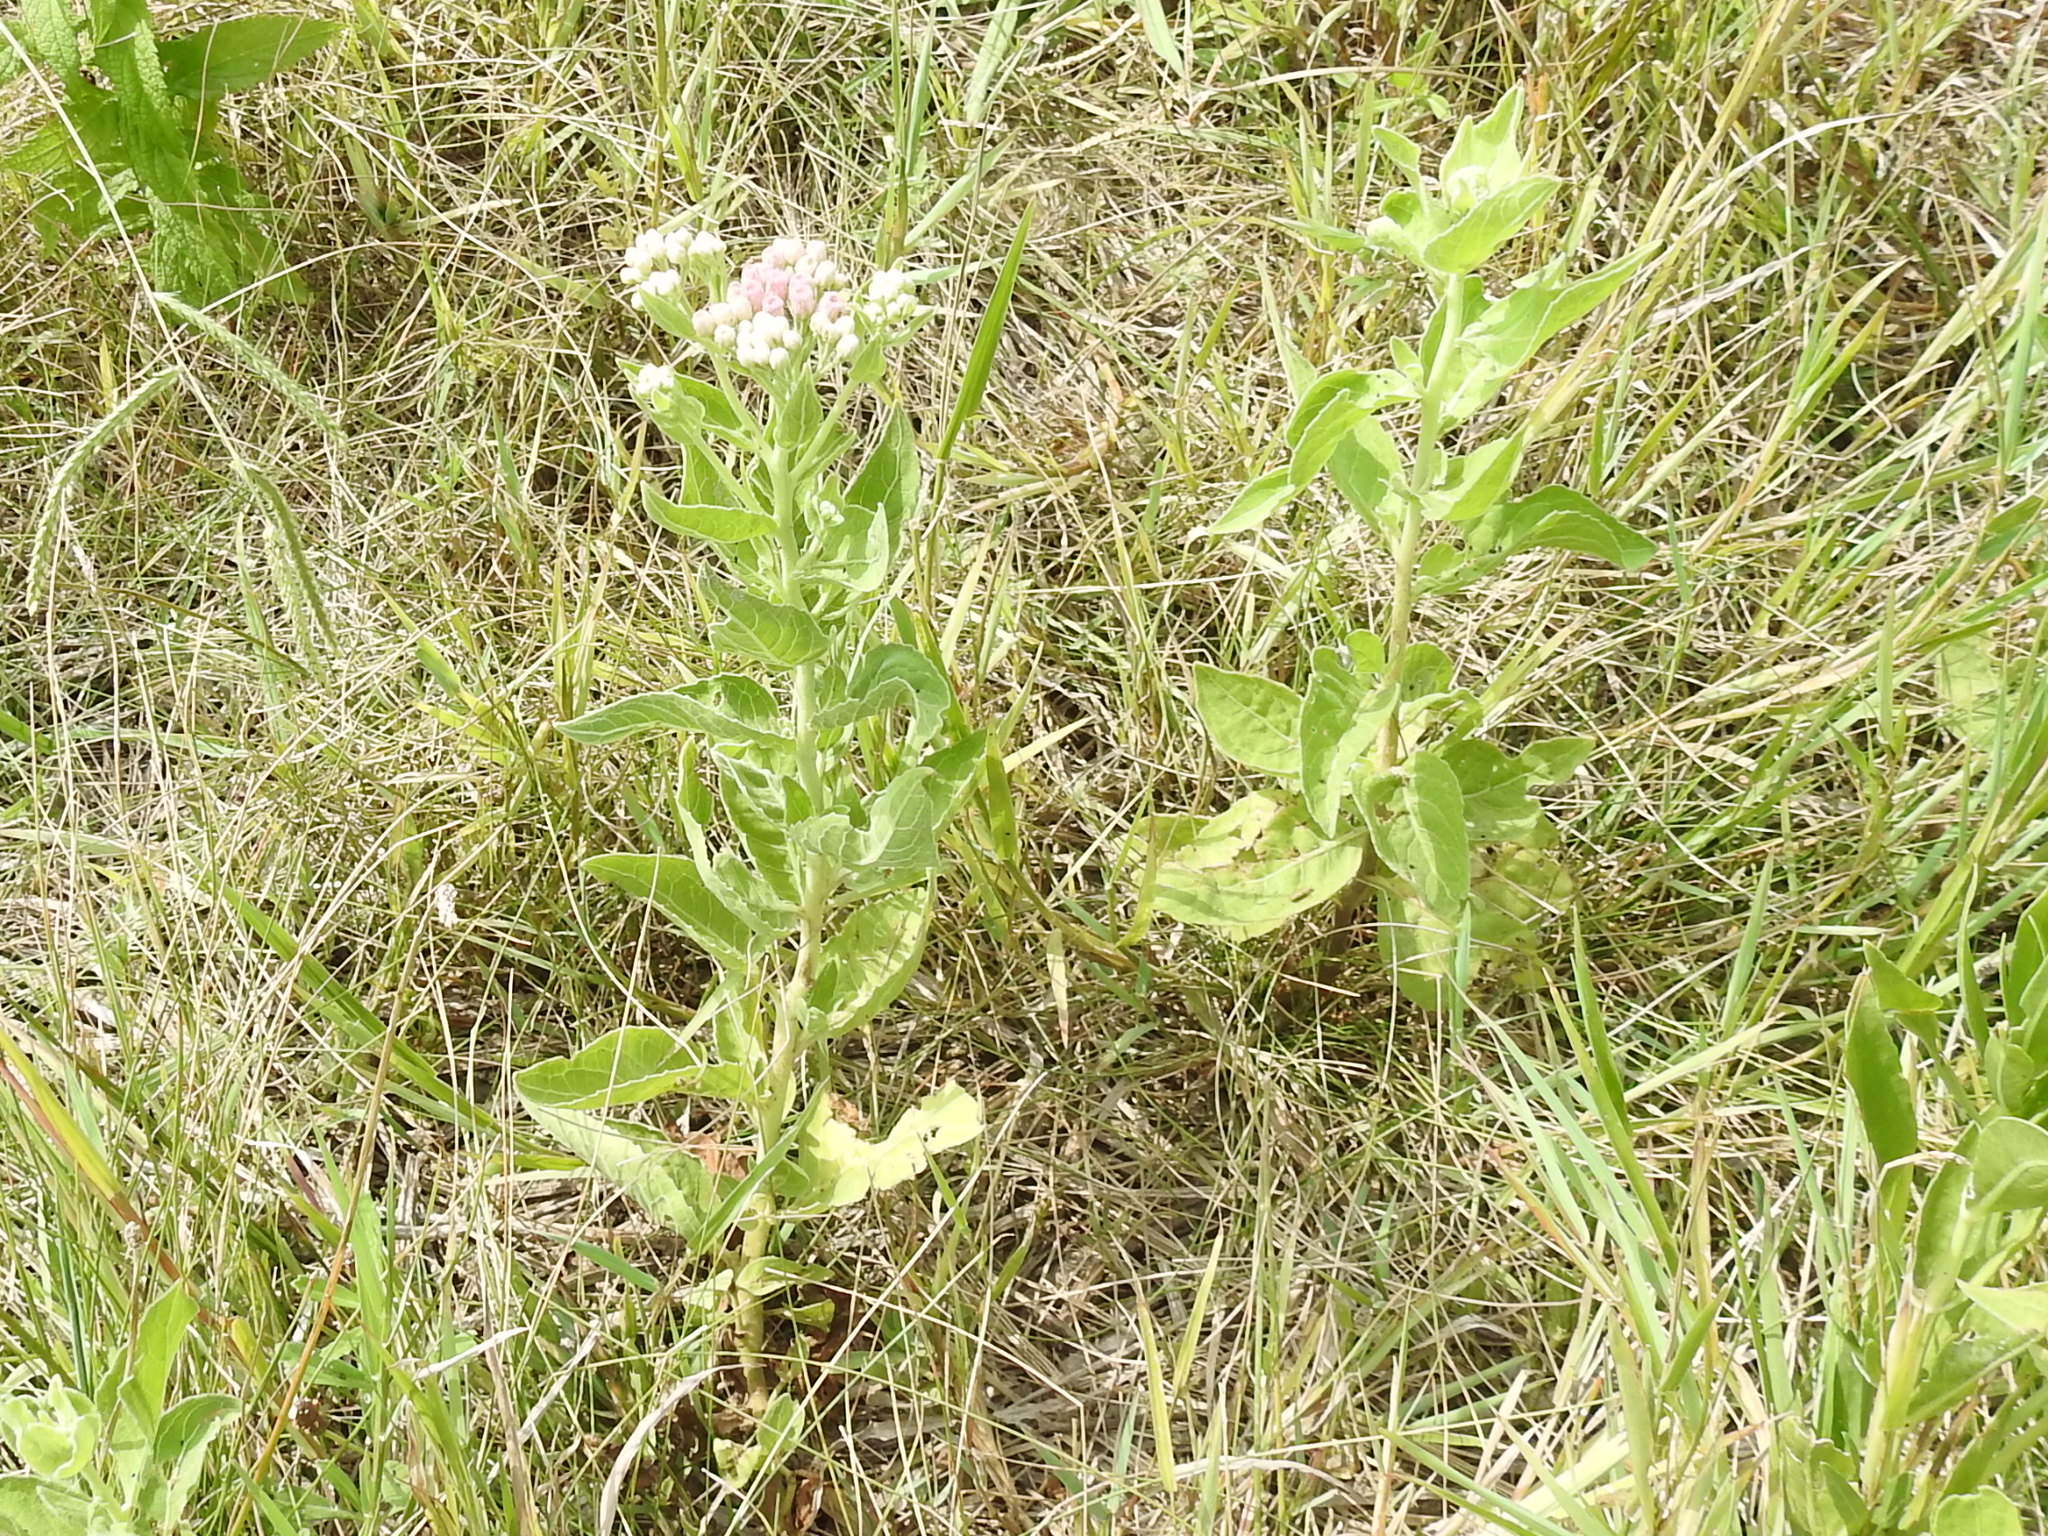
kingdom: Plantae
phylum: Tracheophyta
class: Magnoliopsida
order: Asterales
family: Asteraceae
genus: Pluchea
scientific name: Pluchea odorata
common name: Saltmarsh fleabane
